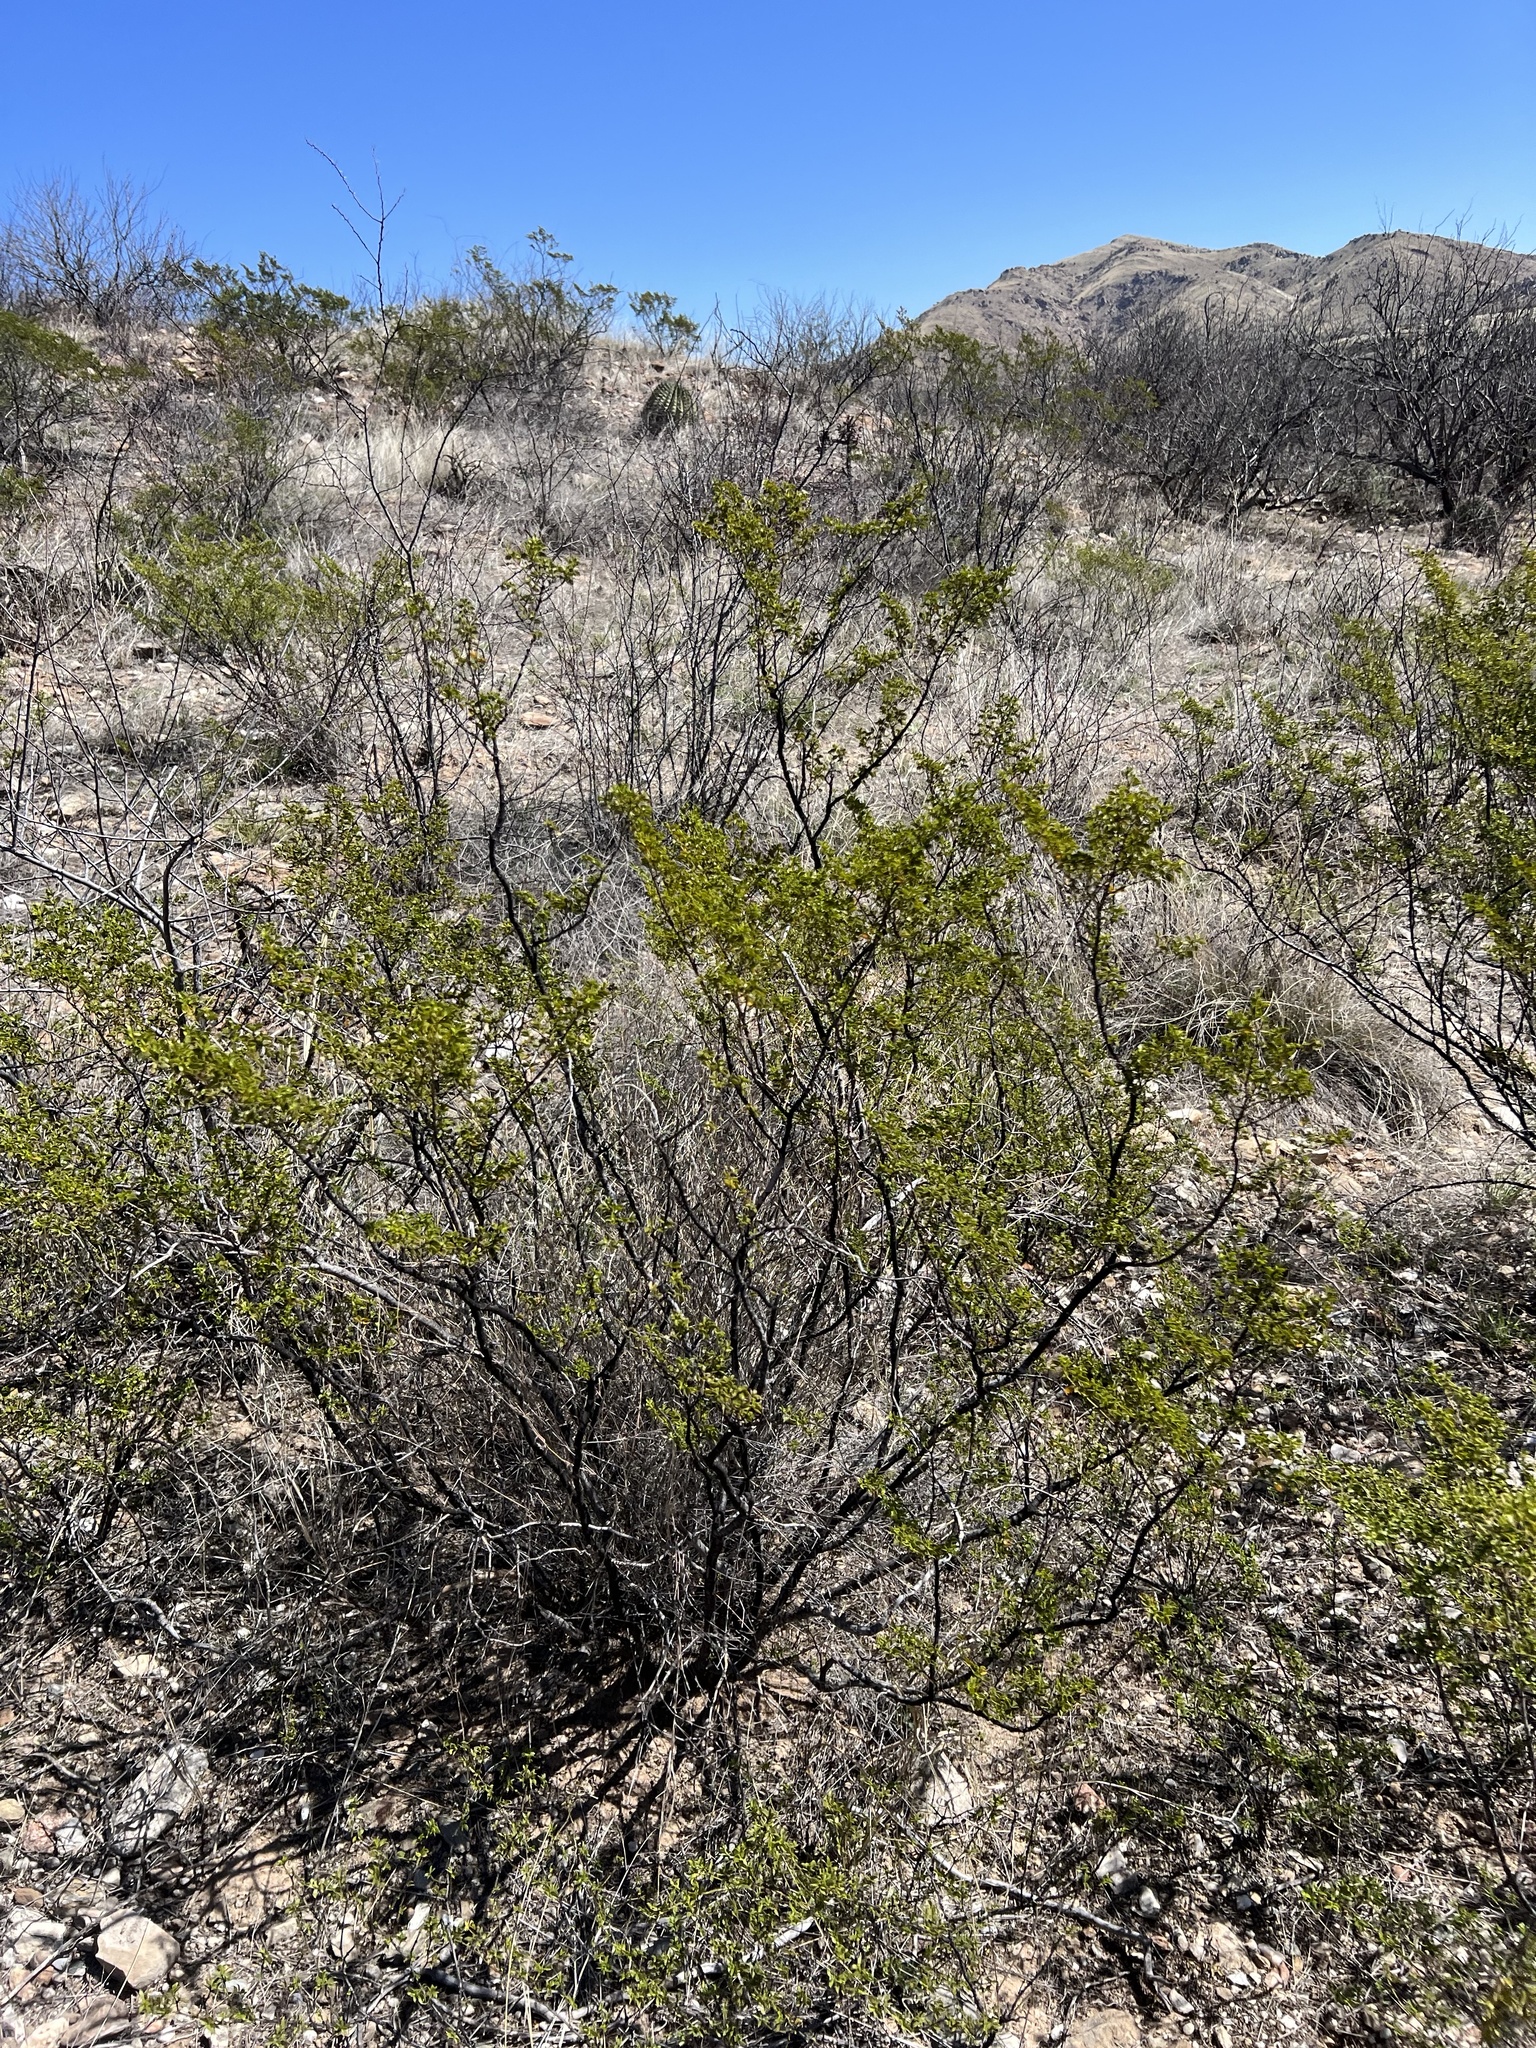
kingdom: Plantae
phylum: Tracheophyta
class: Magnoliopsida
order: Zygophyllales
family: Zygophyllaceae
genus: Larrea
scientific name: Larrea tridentata
